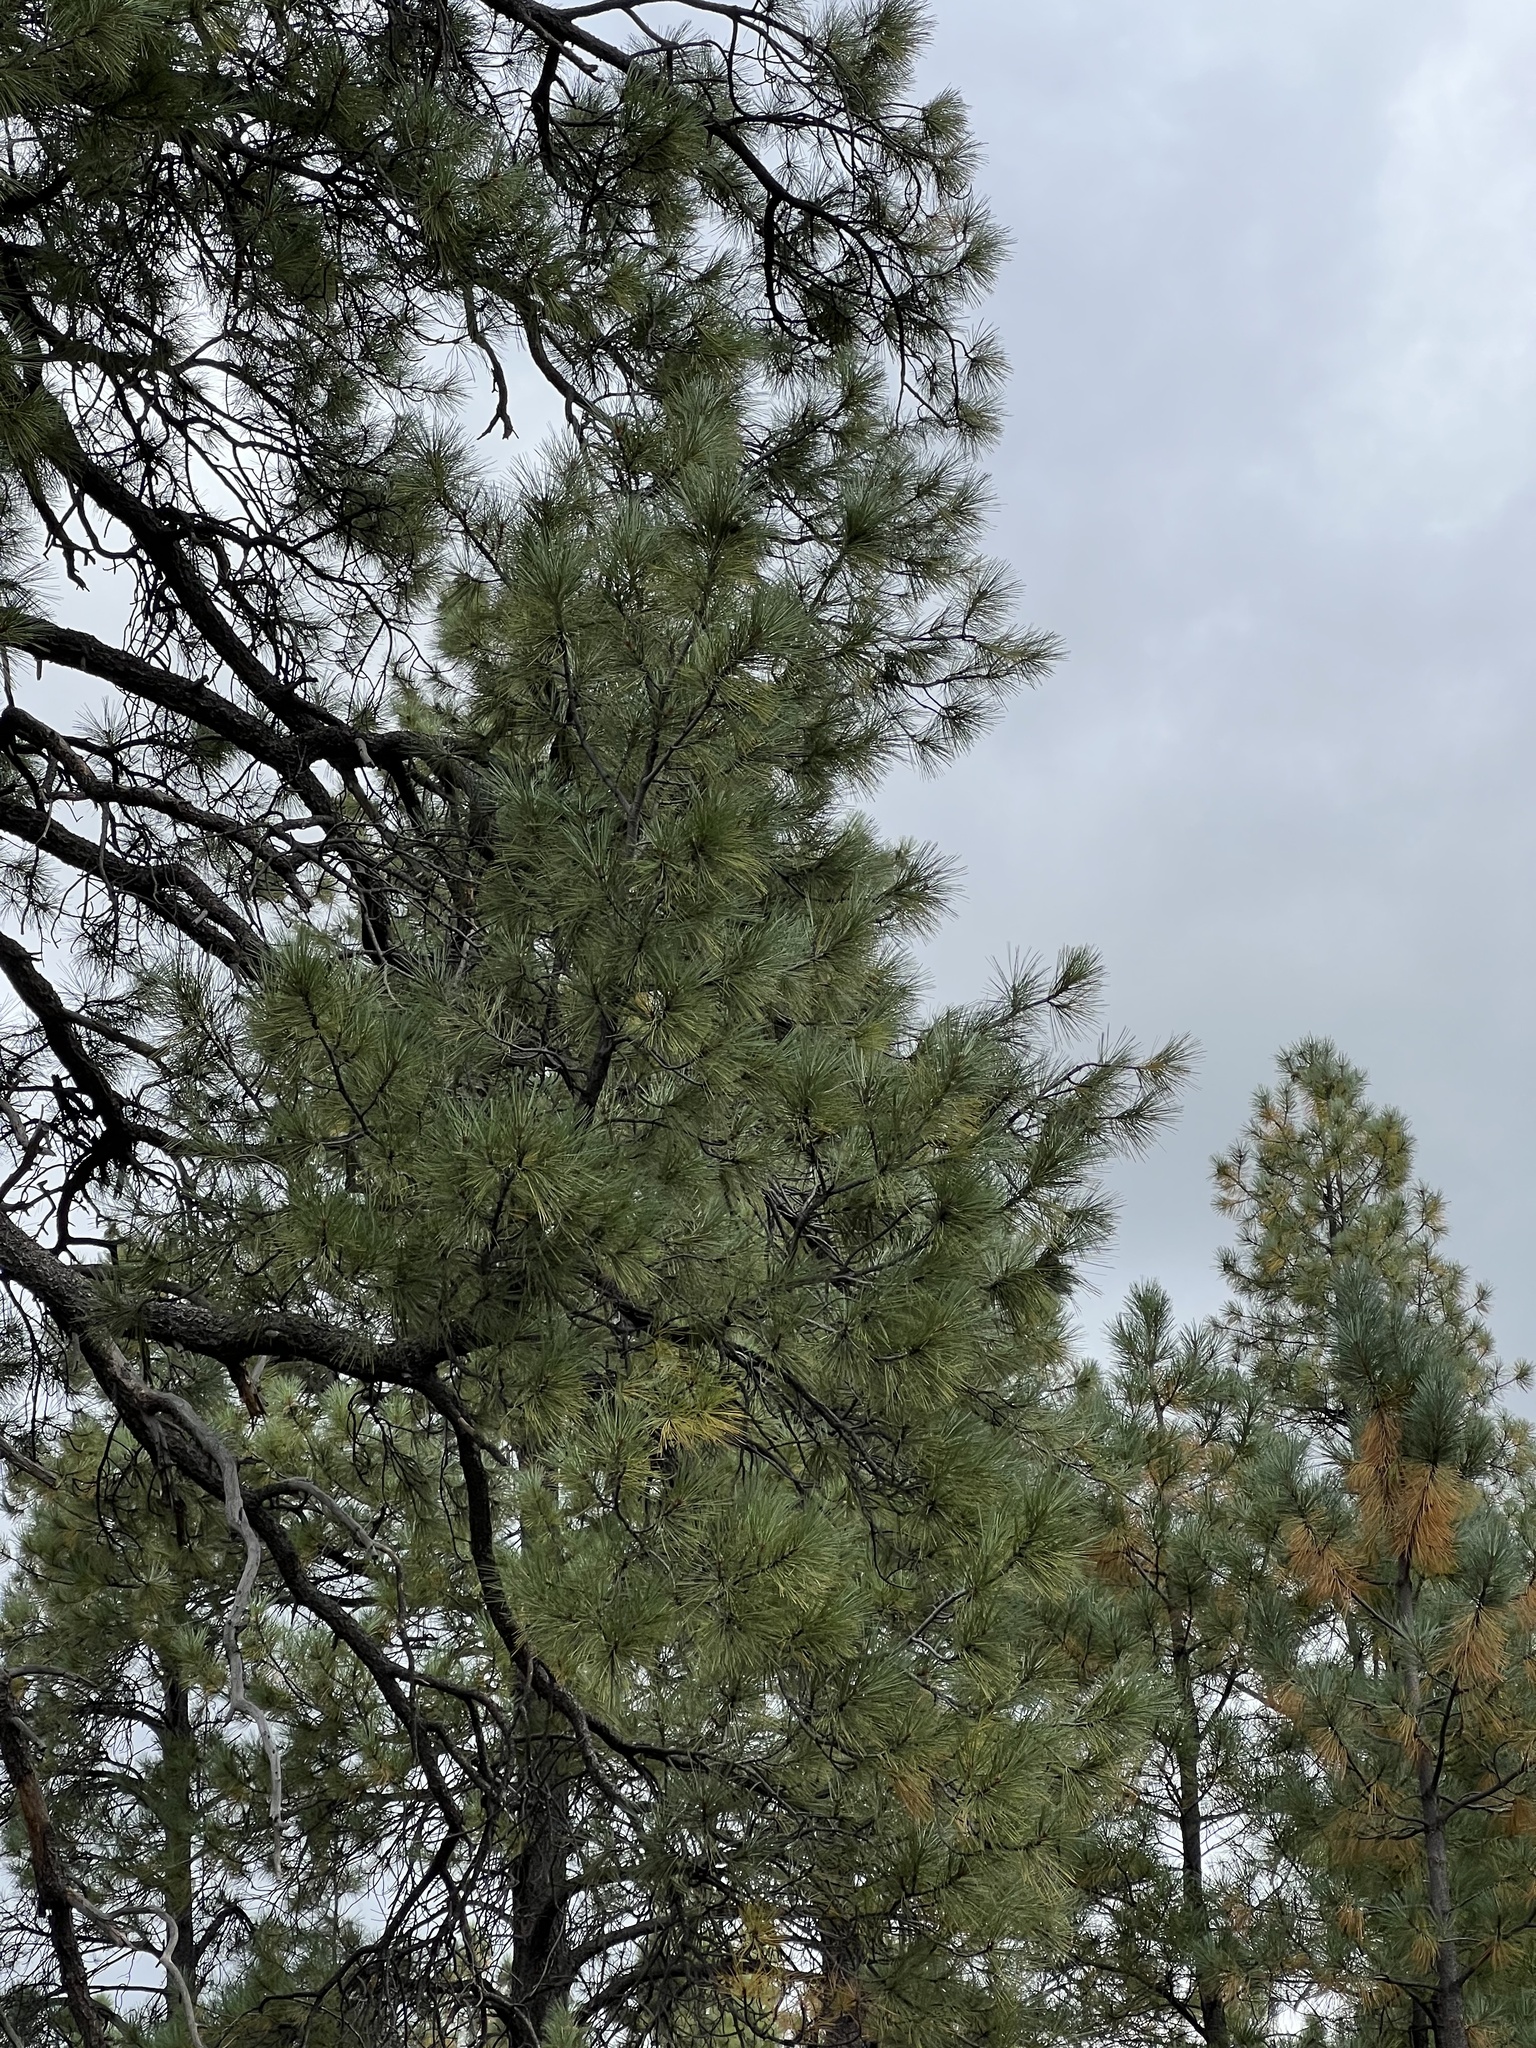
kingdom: Plantae
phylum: Tracheophyta
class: Pinopsida
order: Pinales
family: Pinaceae
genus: Pinus
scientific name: Pinus ponderosa
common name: Western yellow-pine
